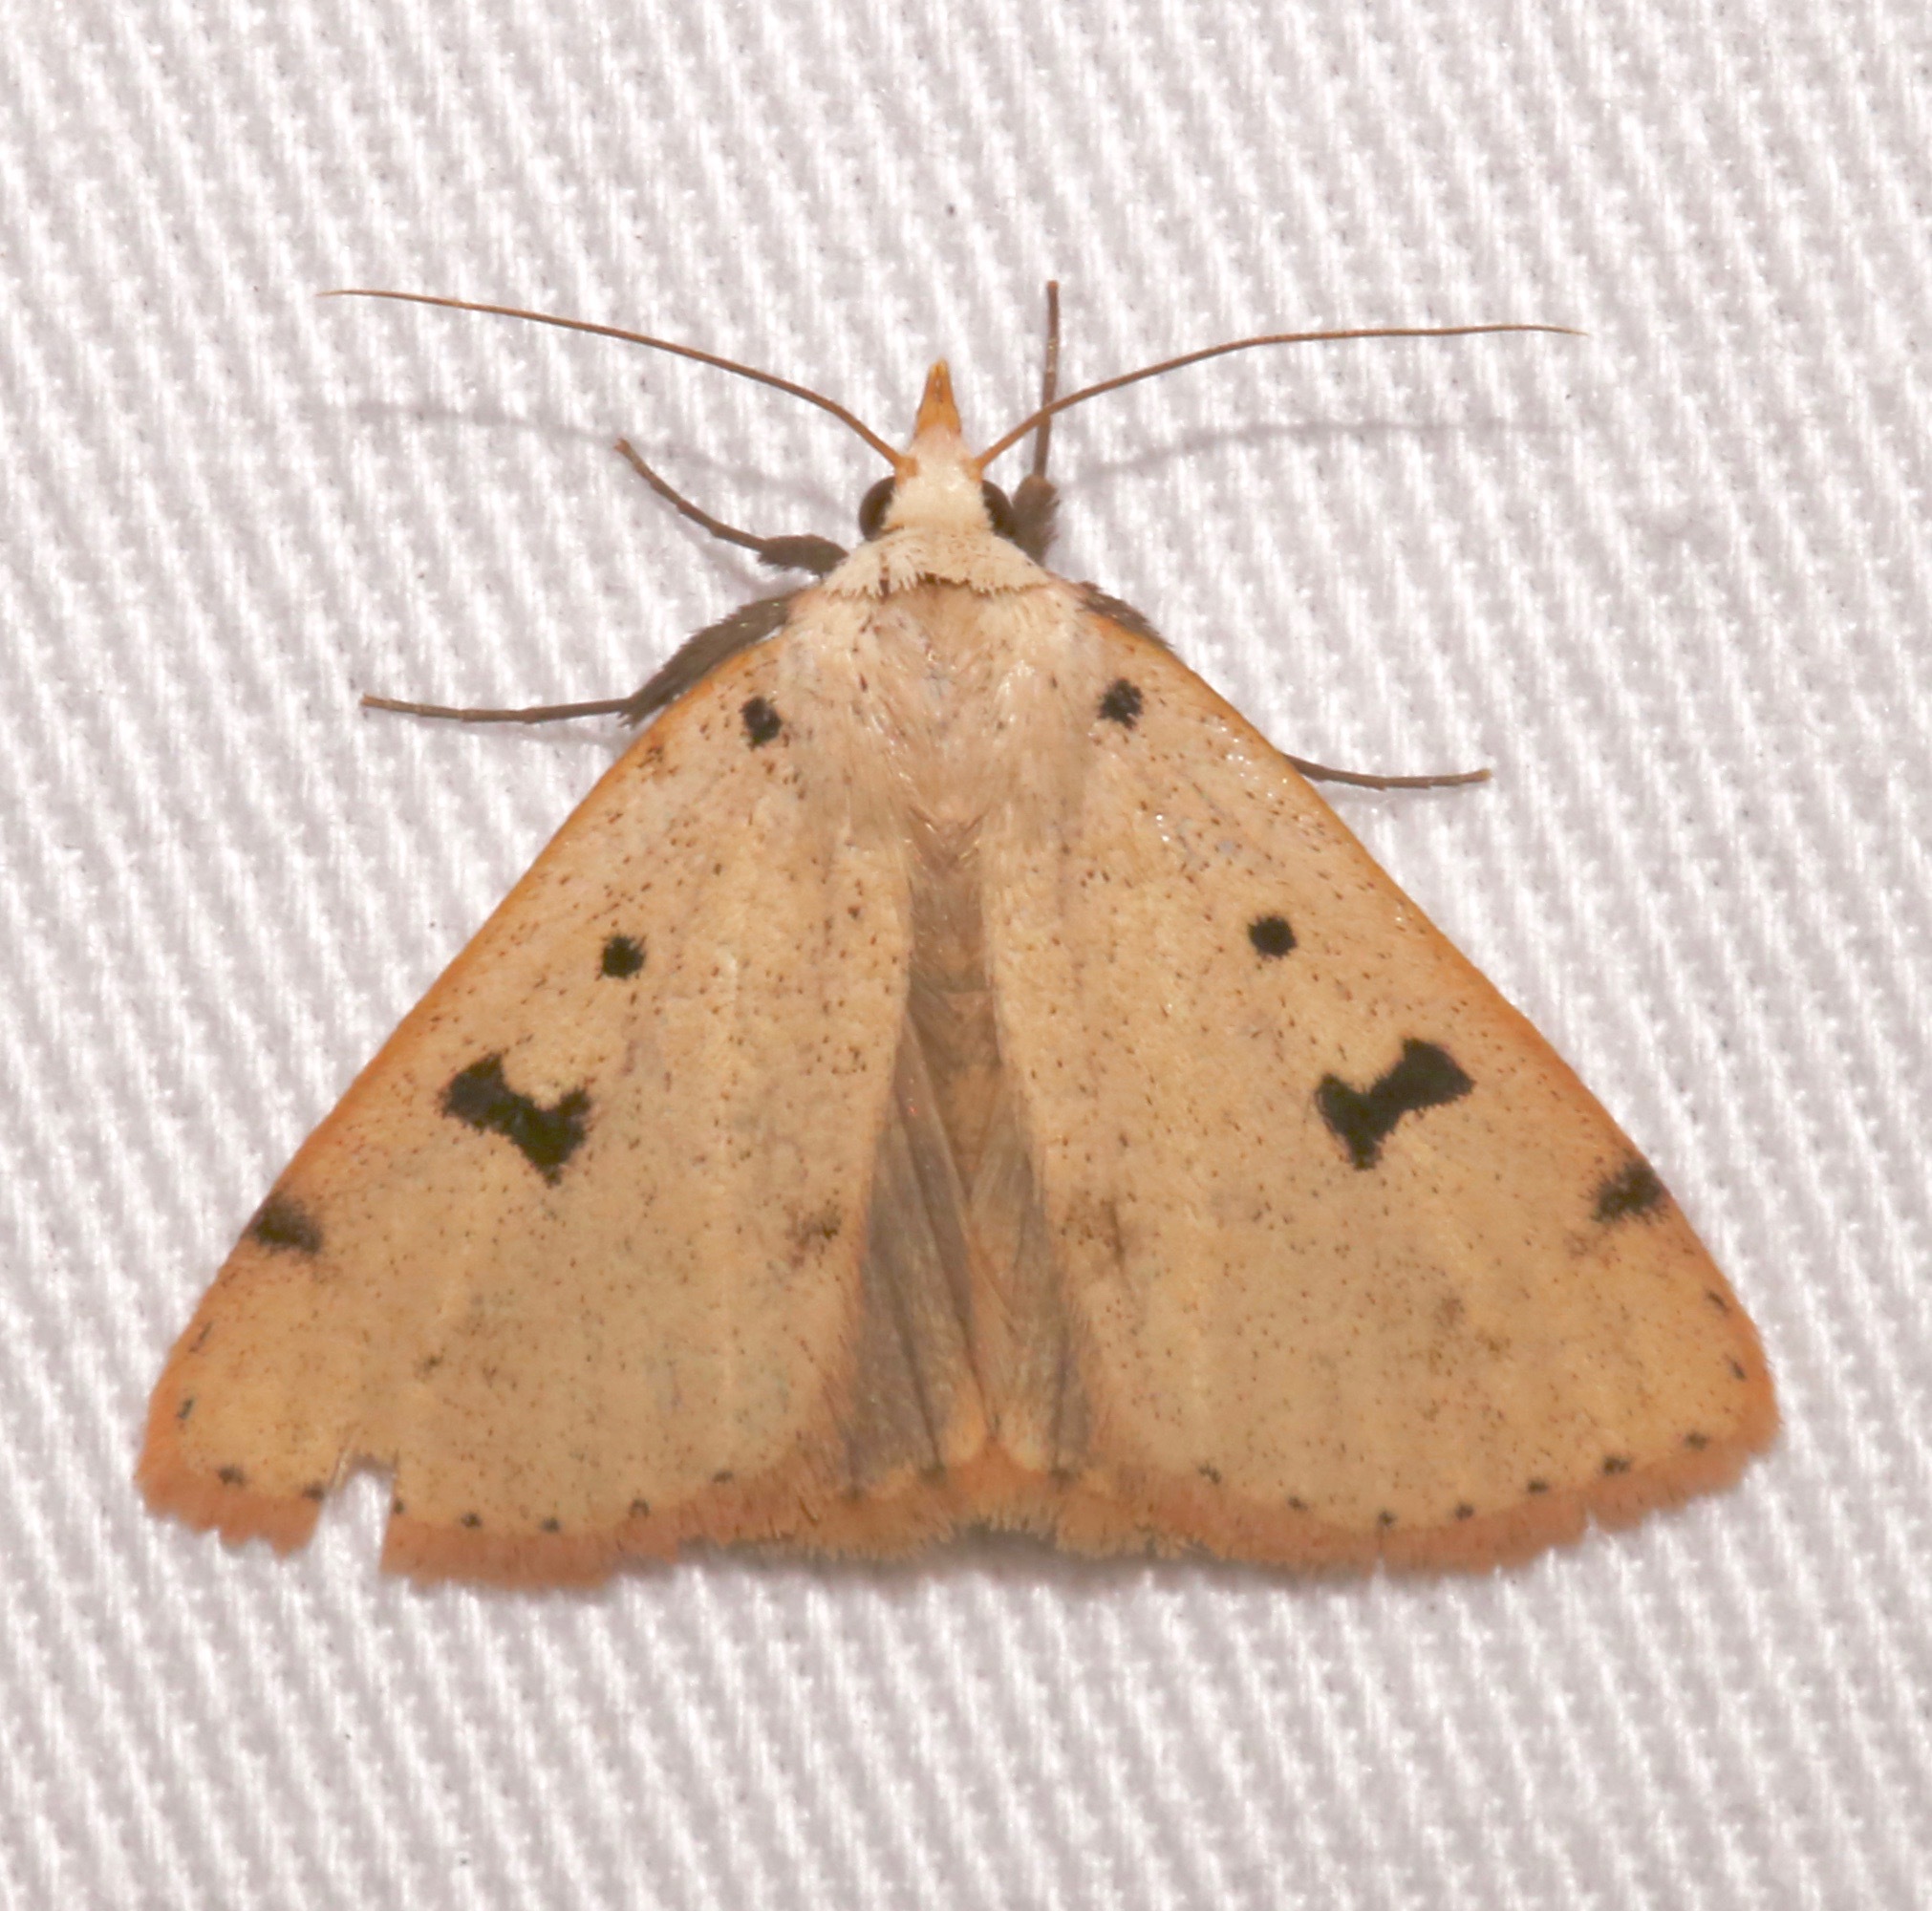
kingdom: Animalia
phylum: Arthropoda
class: Insecta
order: Lepidoptera
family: Erebidae
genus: Scolecocampa
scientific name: Scolecocampa atriluna
